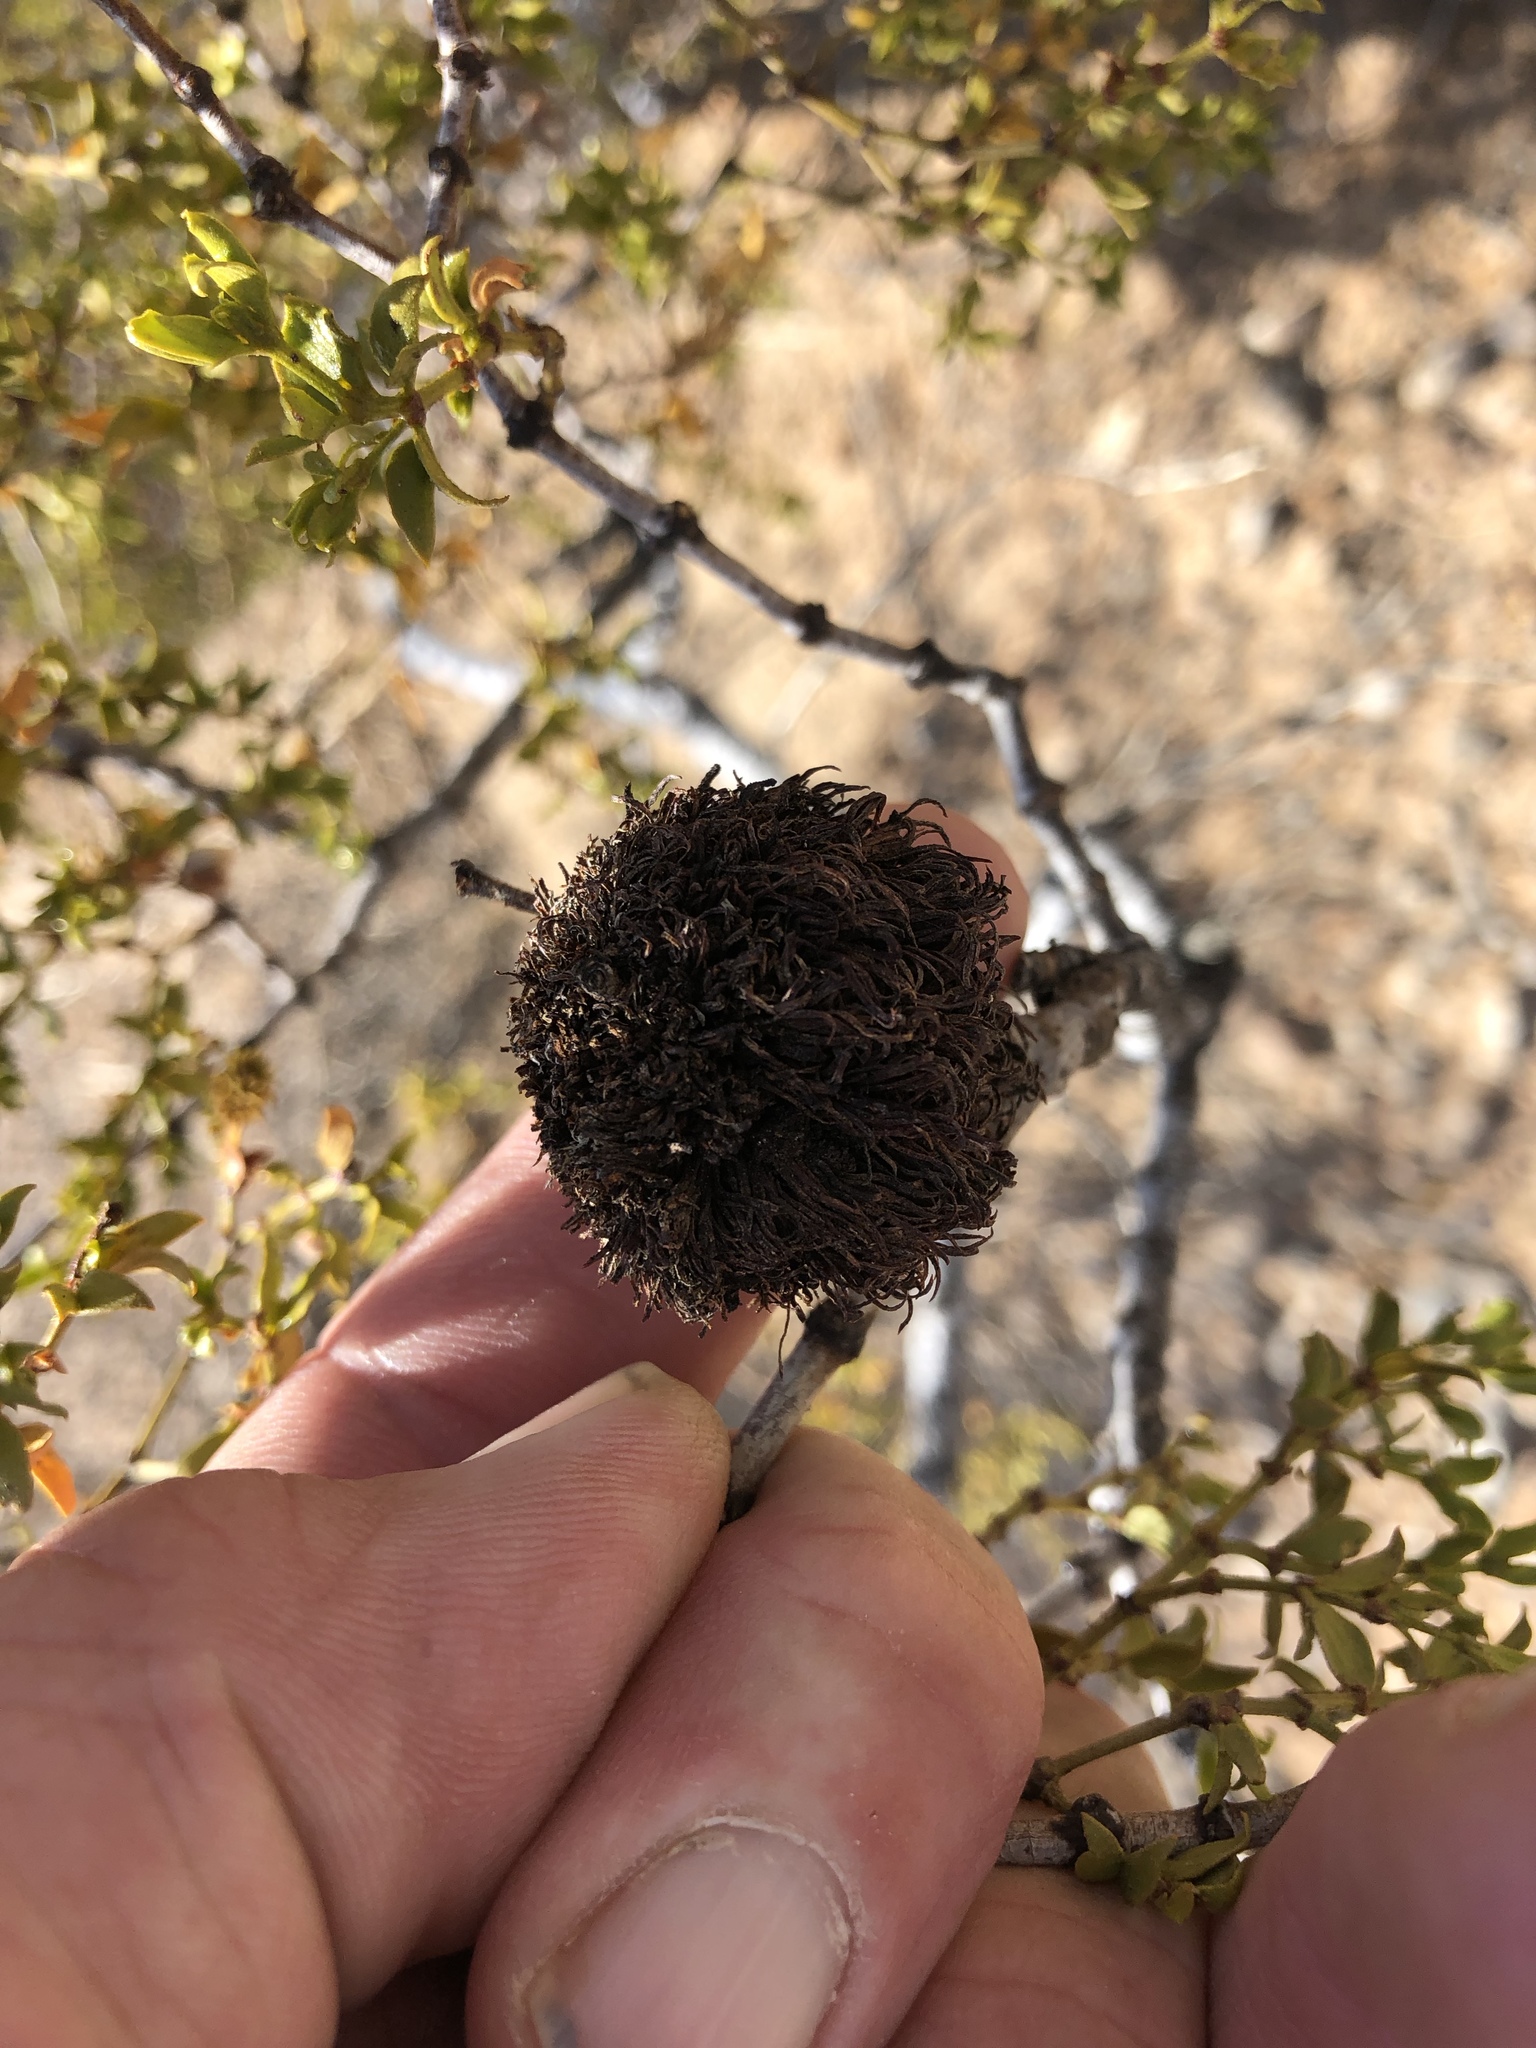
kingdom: Animalia
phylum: Arthropoda
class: Insecta
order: Diptera
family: Cecidomyiidae
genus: Asphondylia
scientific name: Asphondylia auripila
